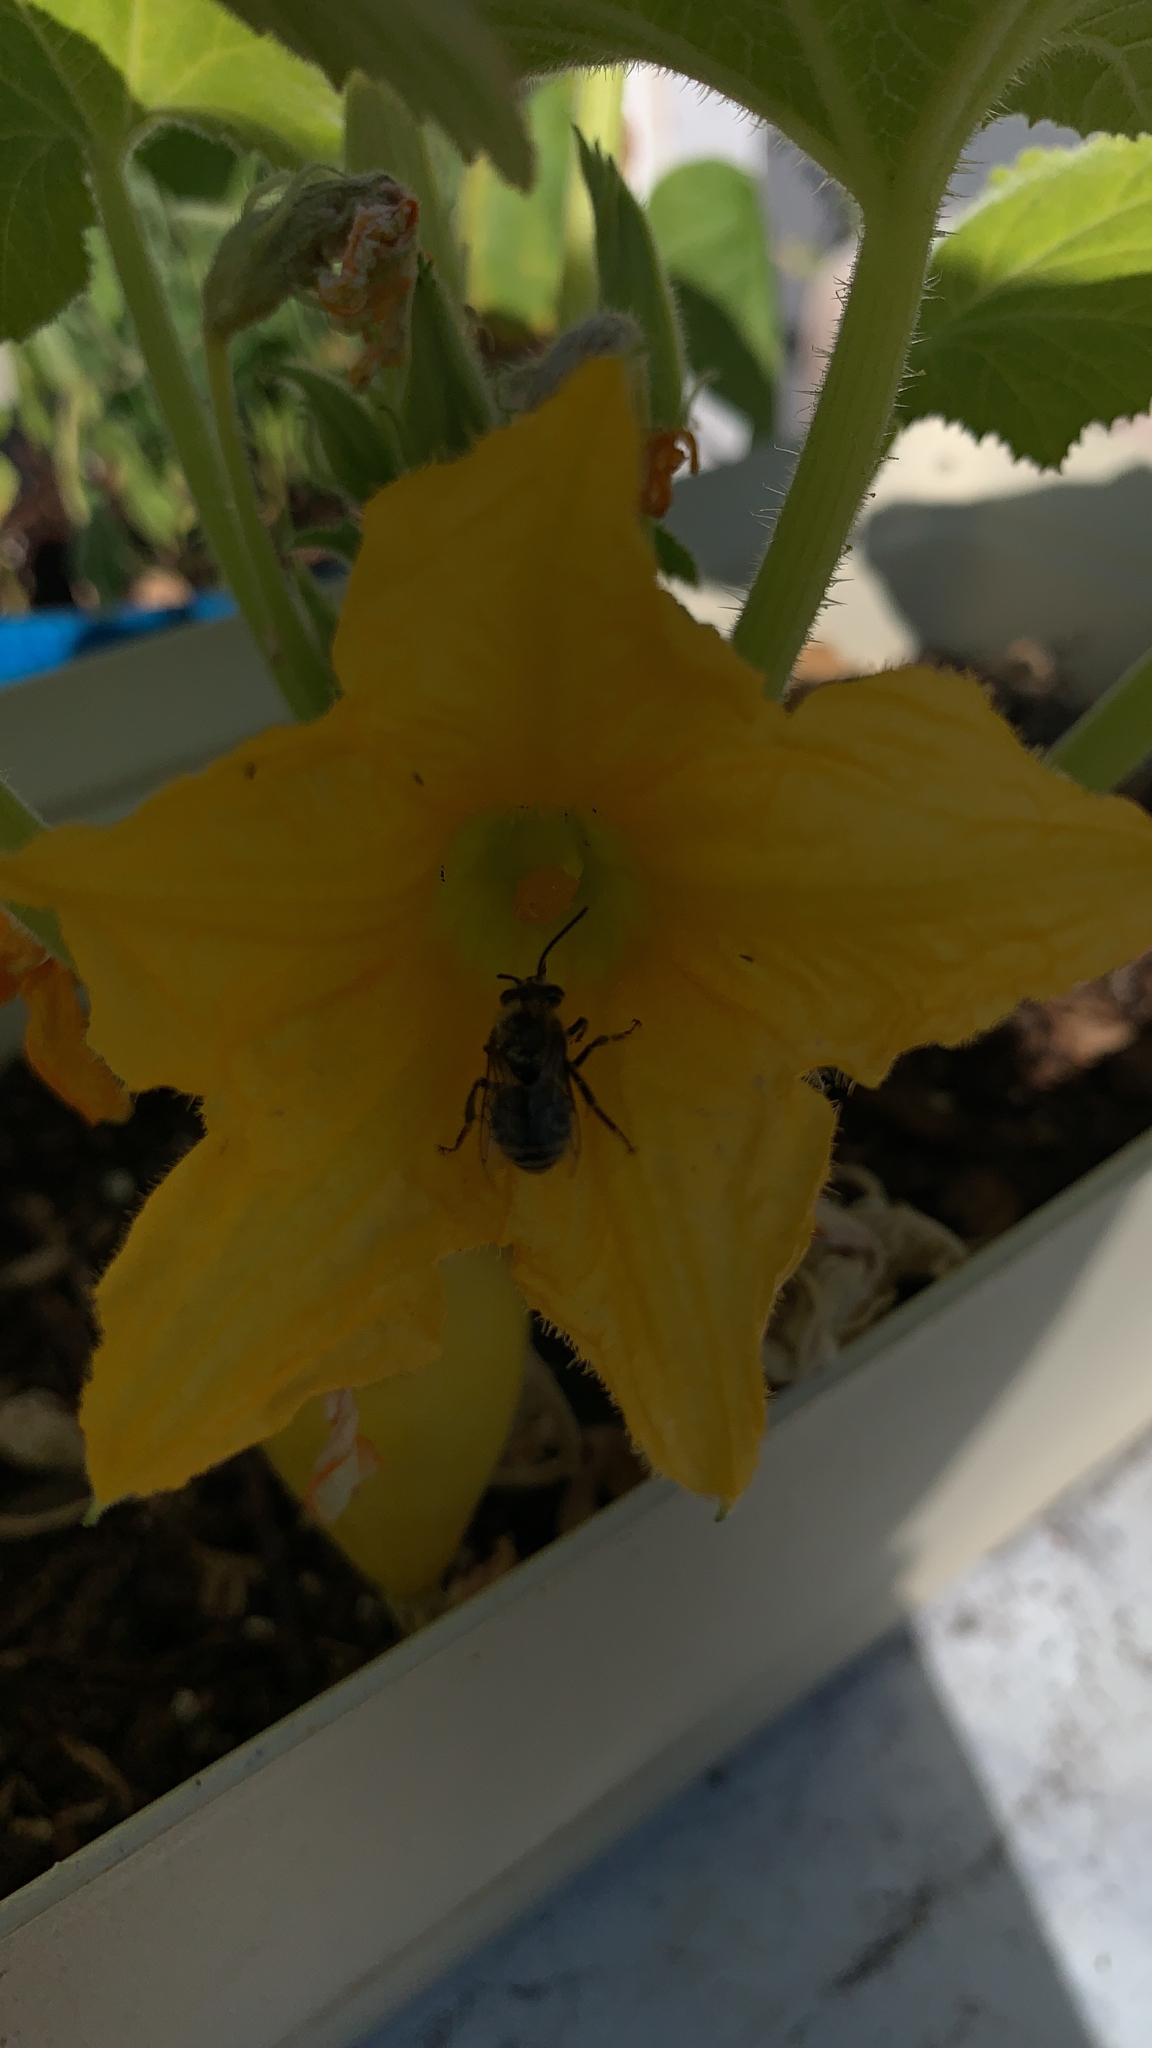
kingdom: Animalia
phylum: Arthropoda
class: Insecta
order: Hymenoptera
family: Apidae
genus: Peponapis
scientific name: Peponapis pruinosa
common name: Pruinose squash bee
